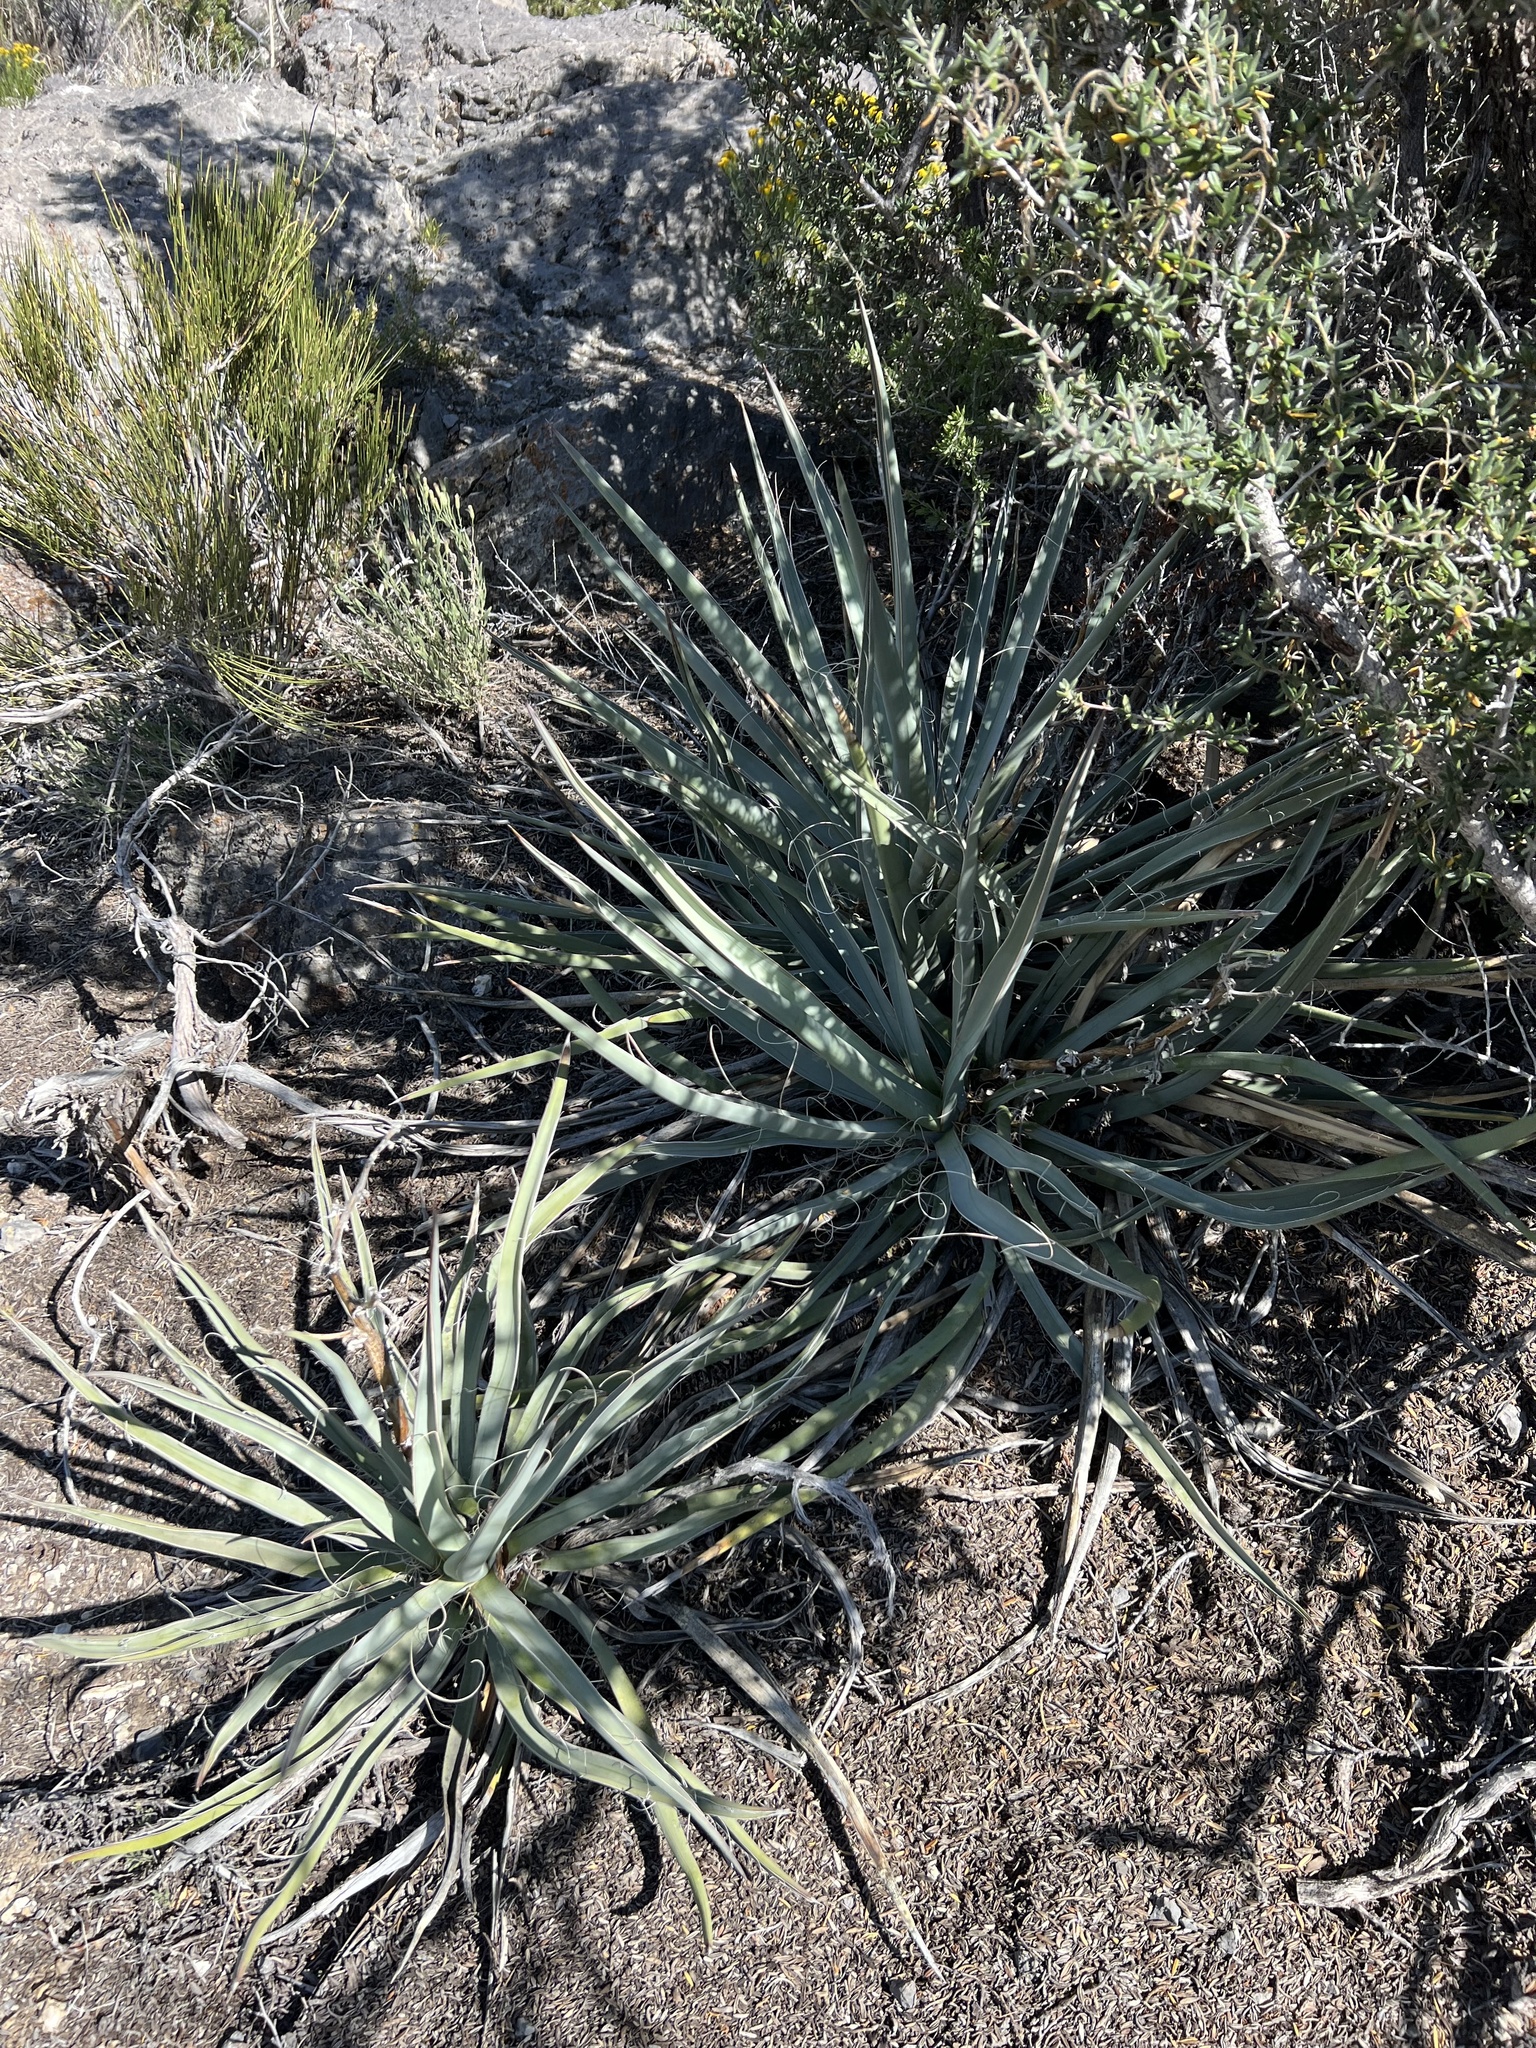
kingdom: Plantae
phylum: Tracheophyta
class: Liliopsida
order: Asparagales
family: Asparagaceae
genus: Yucca
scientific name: Yucca baccata
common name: Banana yucca
